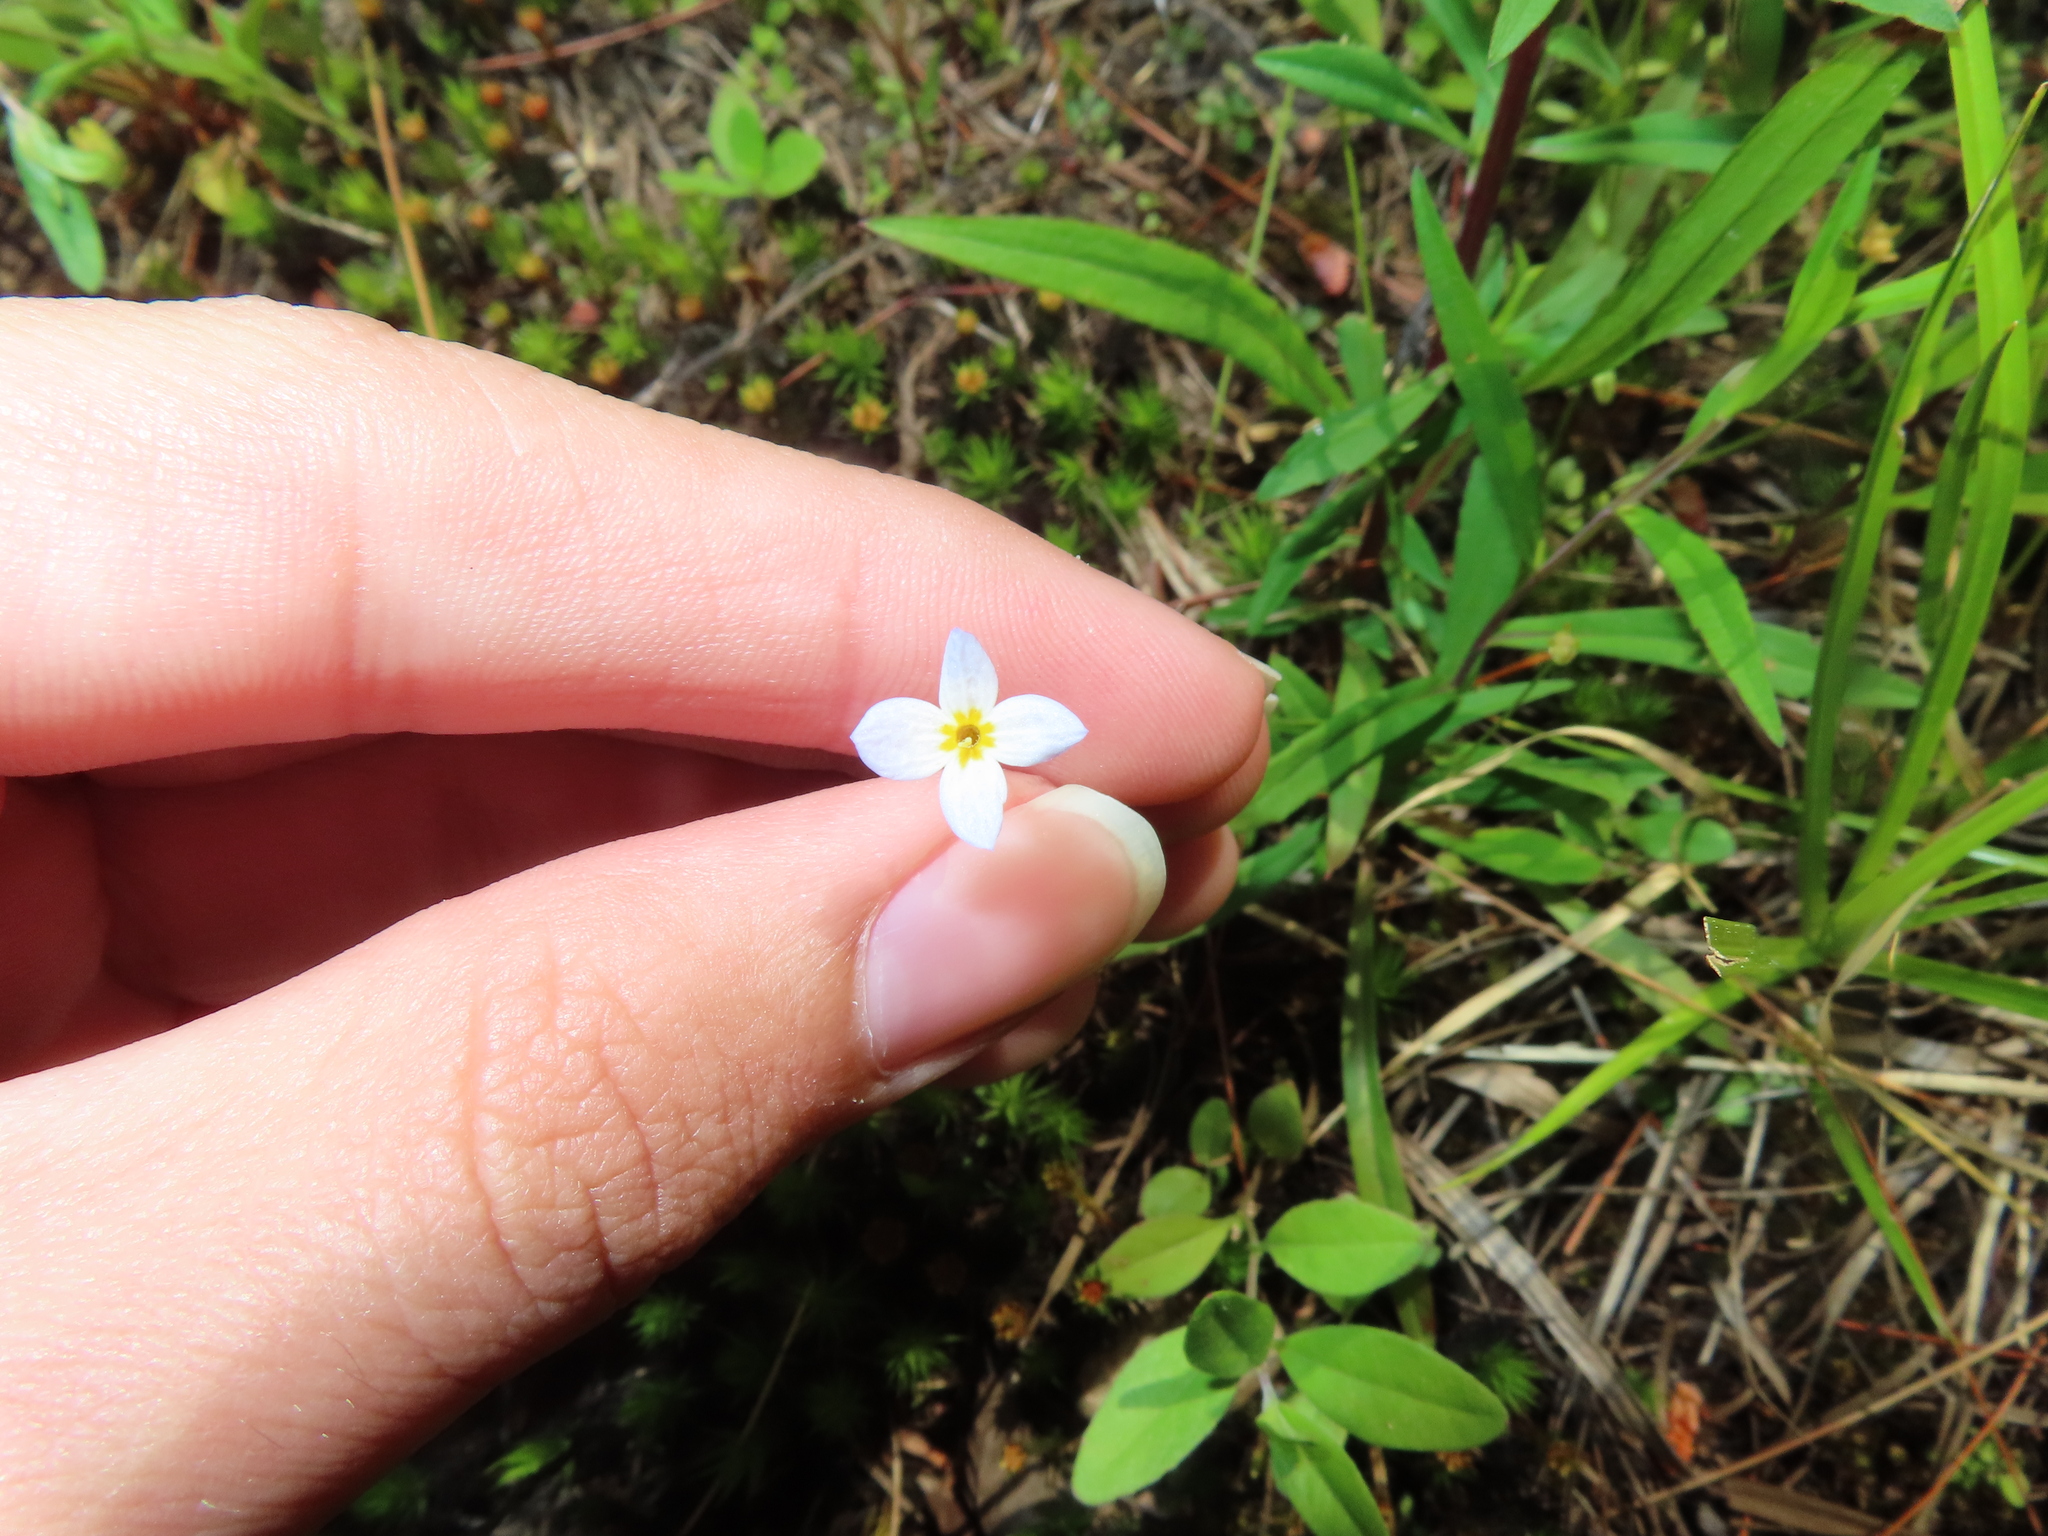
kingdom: Plantae
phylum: Tracheophyta
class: Magnoliopsida
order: Gentianales
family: Rubiaceae
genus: Houstonia
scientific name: Houstonia caerulea
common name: Bluets
